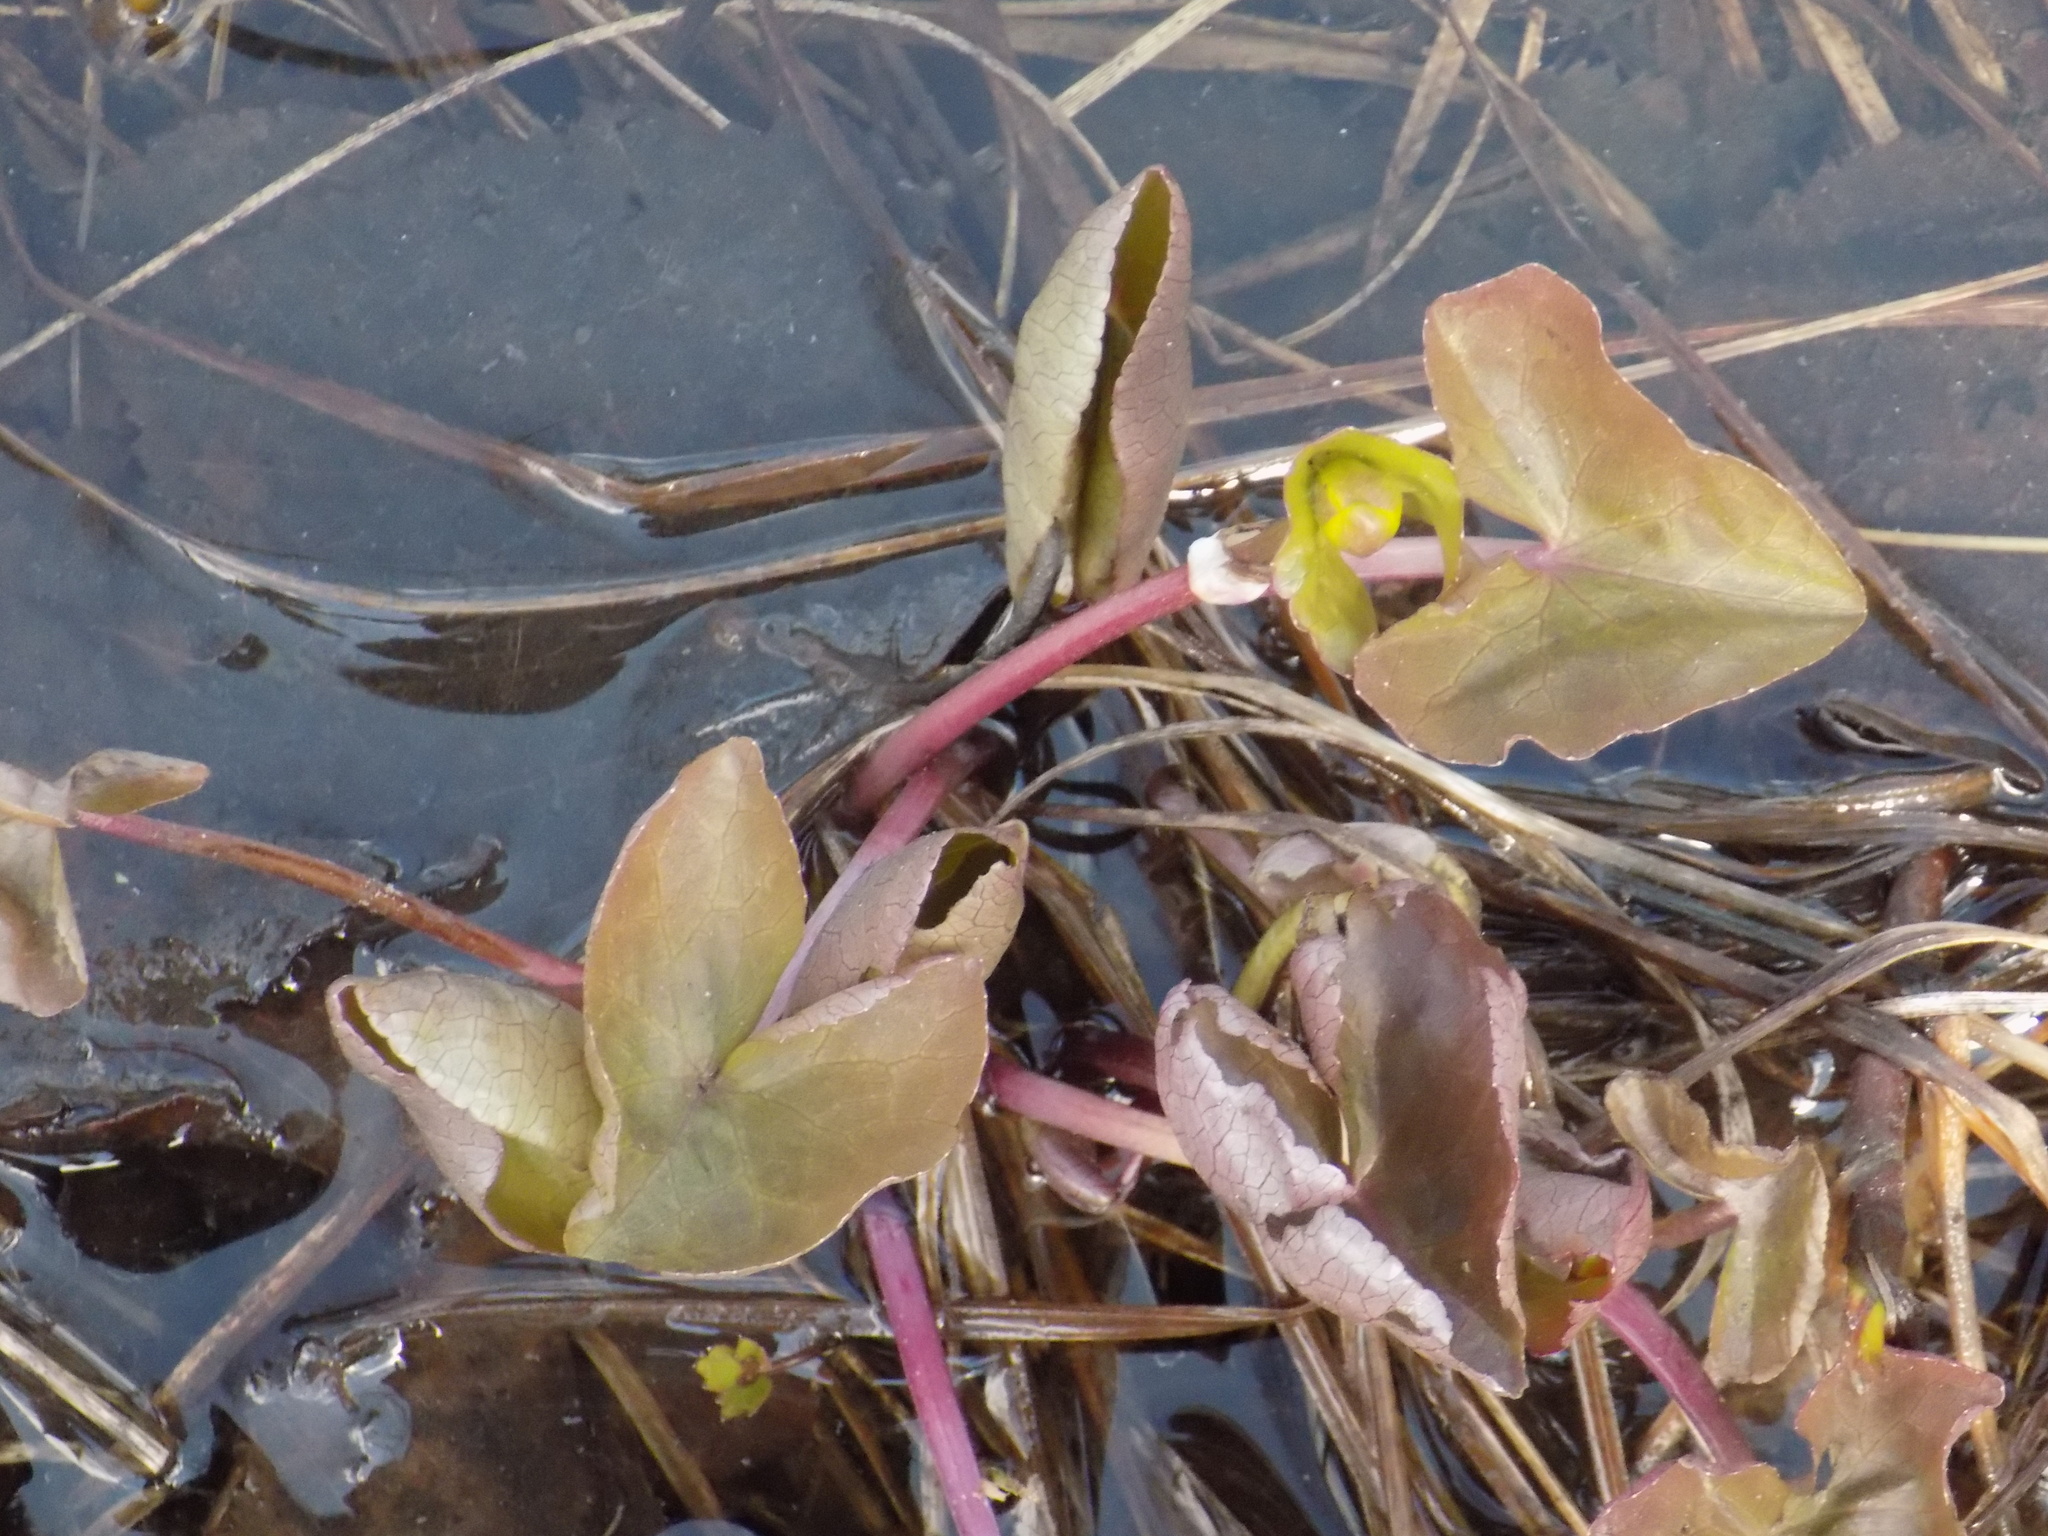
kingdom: Plantae
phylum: Tracheophyta
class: Magnoliopsida
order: Ranunculales
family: Ranunculaceae
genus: Caltha
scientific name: Caltha palustris
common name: Marsh marigold
